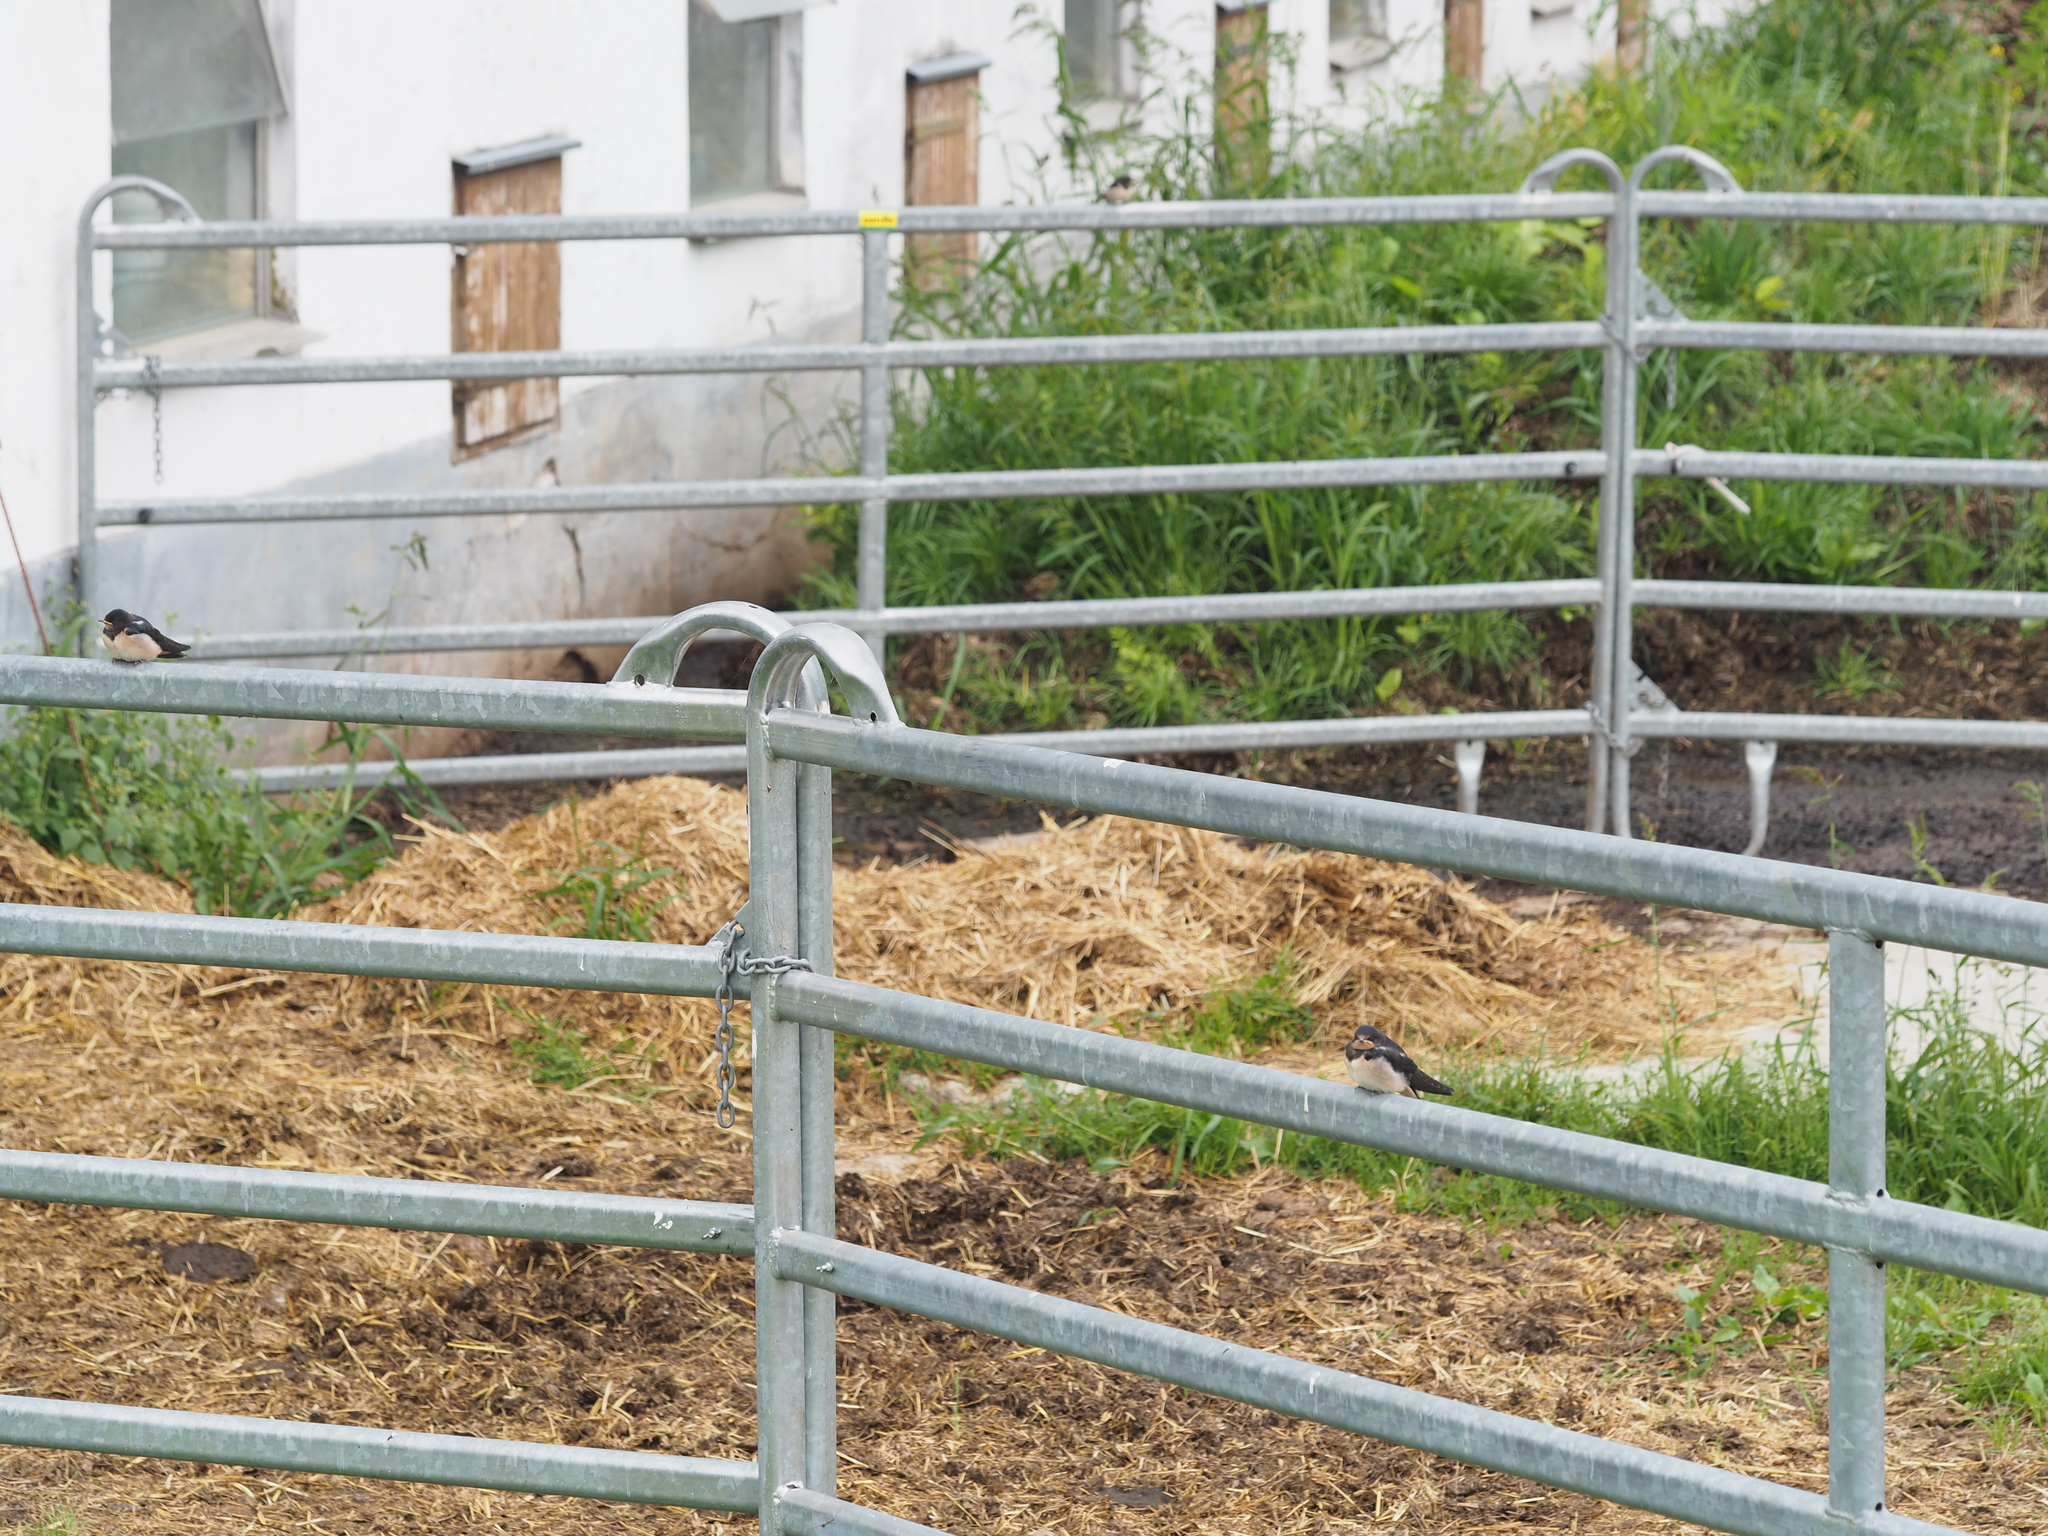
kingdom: Animalia
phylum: Chordata
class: Aves
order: Passeriformes
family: Hirundinidae
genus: Hirundo
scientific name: Hirundo rustica
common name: Barn swallow
